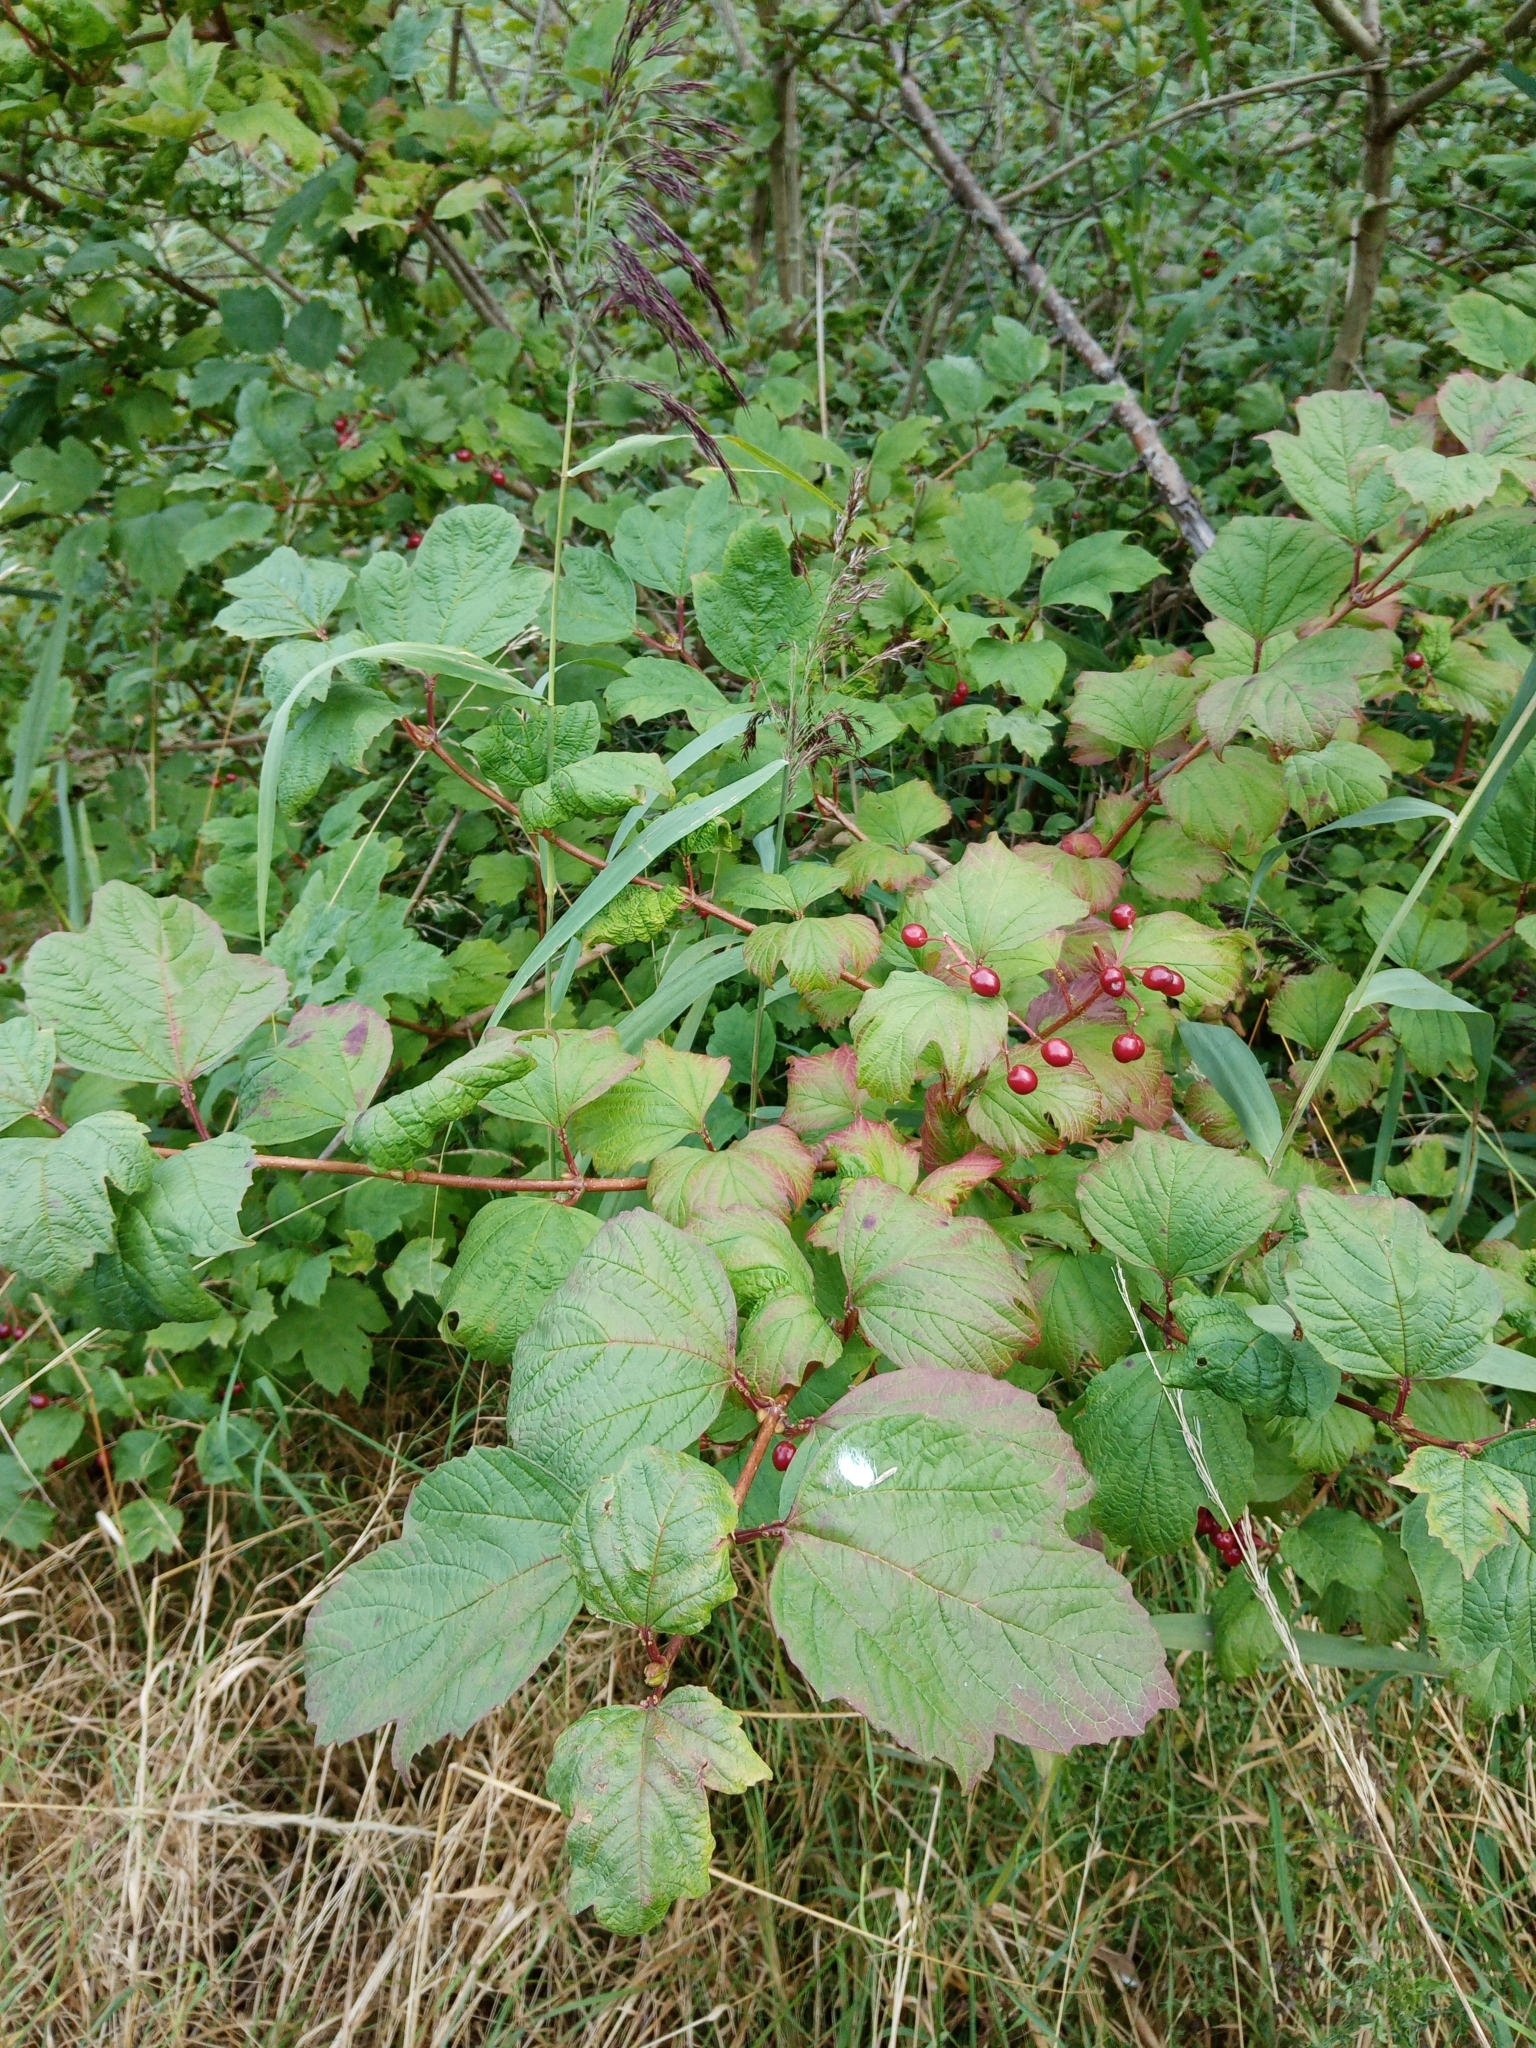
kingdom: Plantae
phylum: Tracheophyta
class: Magnoliopsida
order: Dipsacales
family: Viburnaceae
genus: Viburnum
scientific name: Viburnum opulus
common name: Guelder-rose
